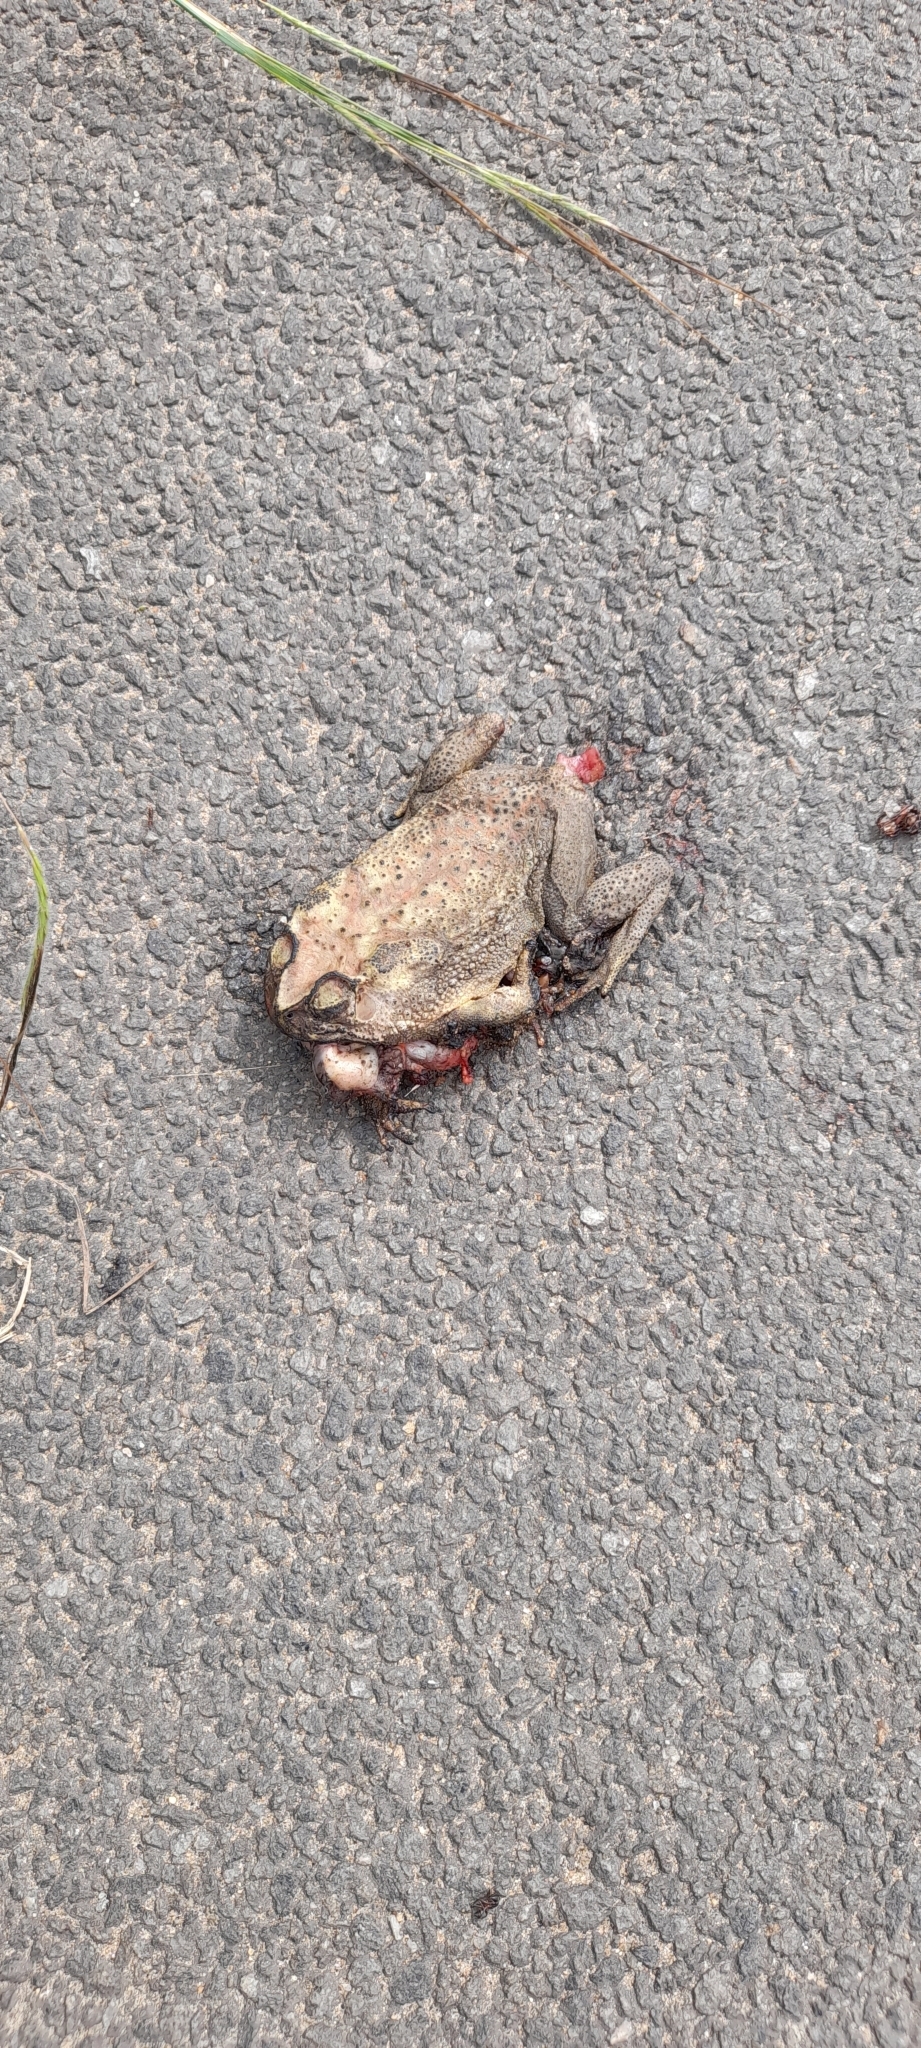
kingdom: Animalia
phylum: Chordata
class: Amphibia
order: Anura
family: Bufonidae
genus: Duttaphrynus
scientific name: Duttaphrynus melanostictus
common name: Common sunda toad
